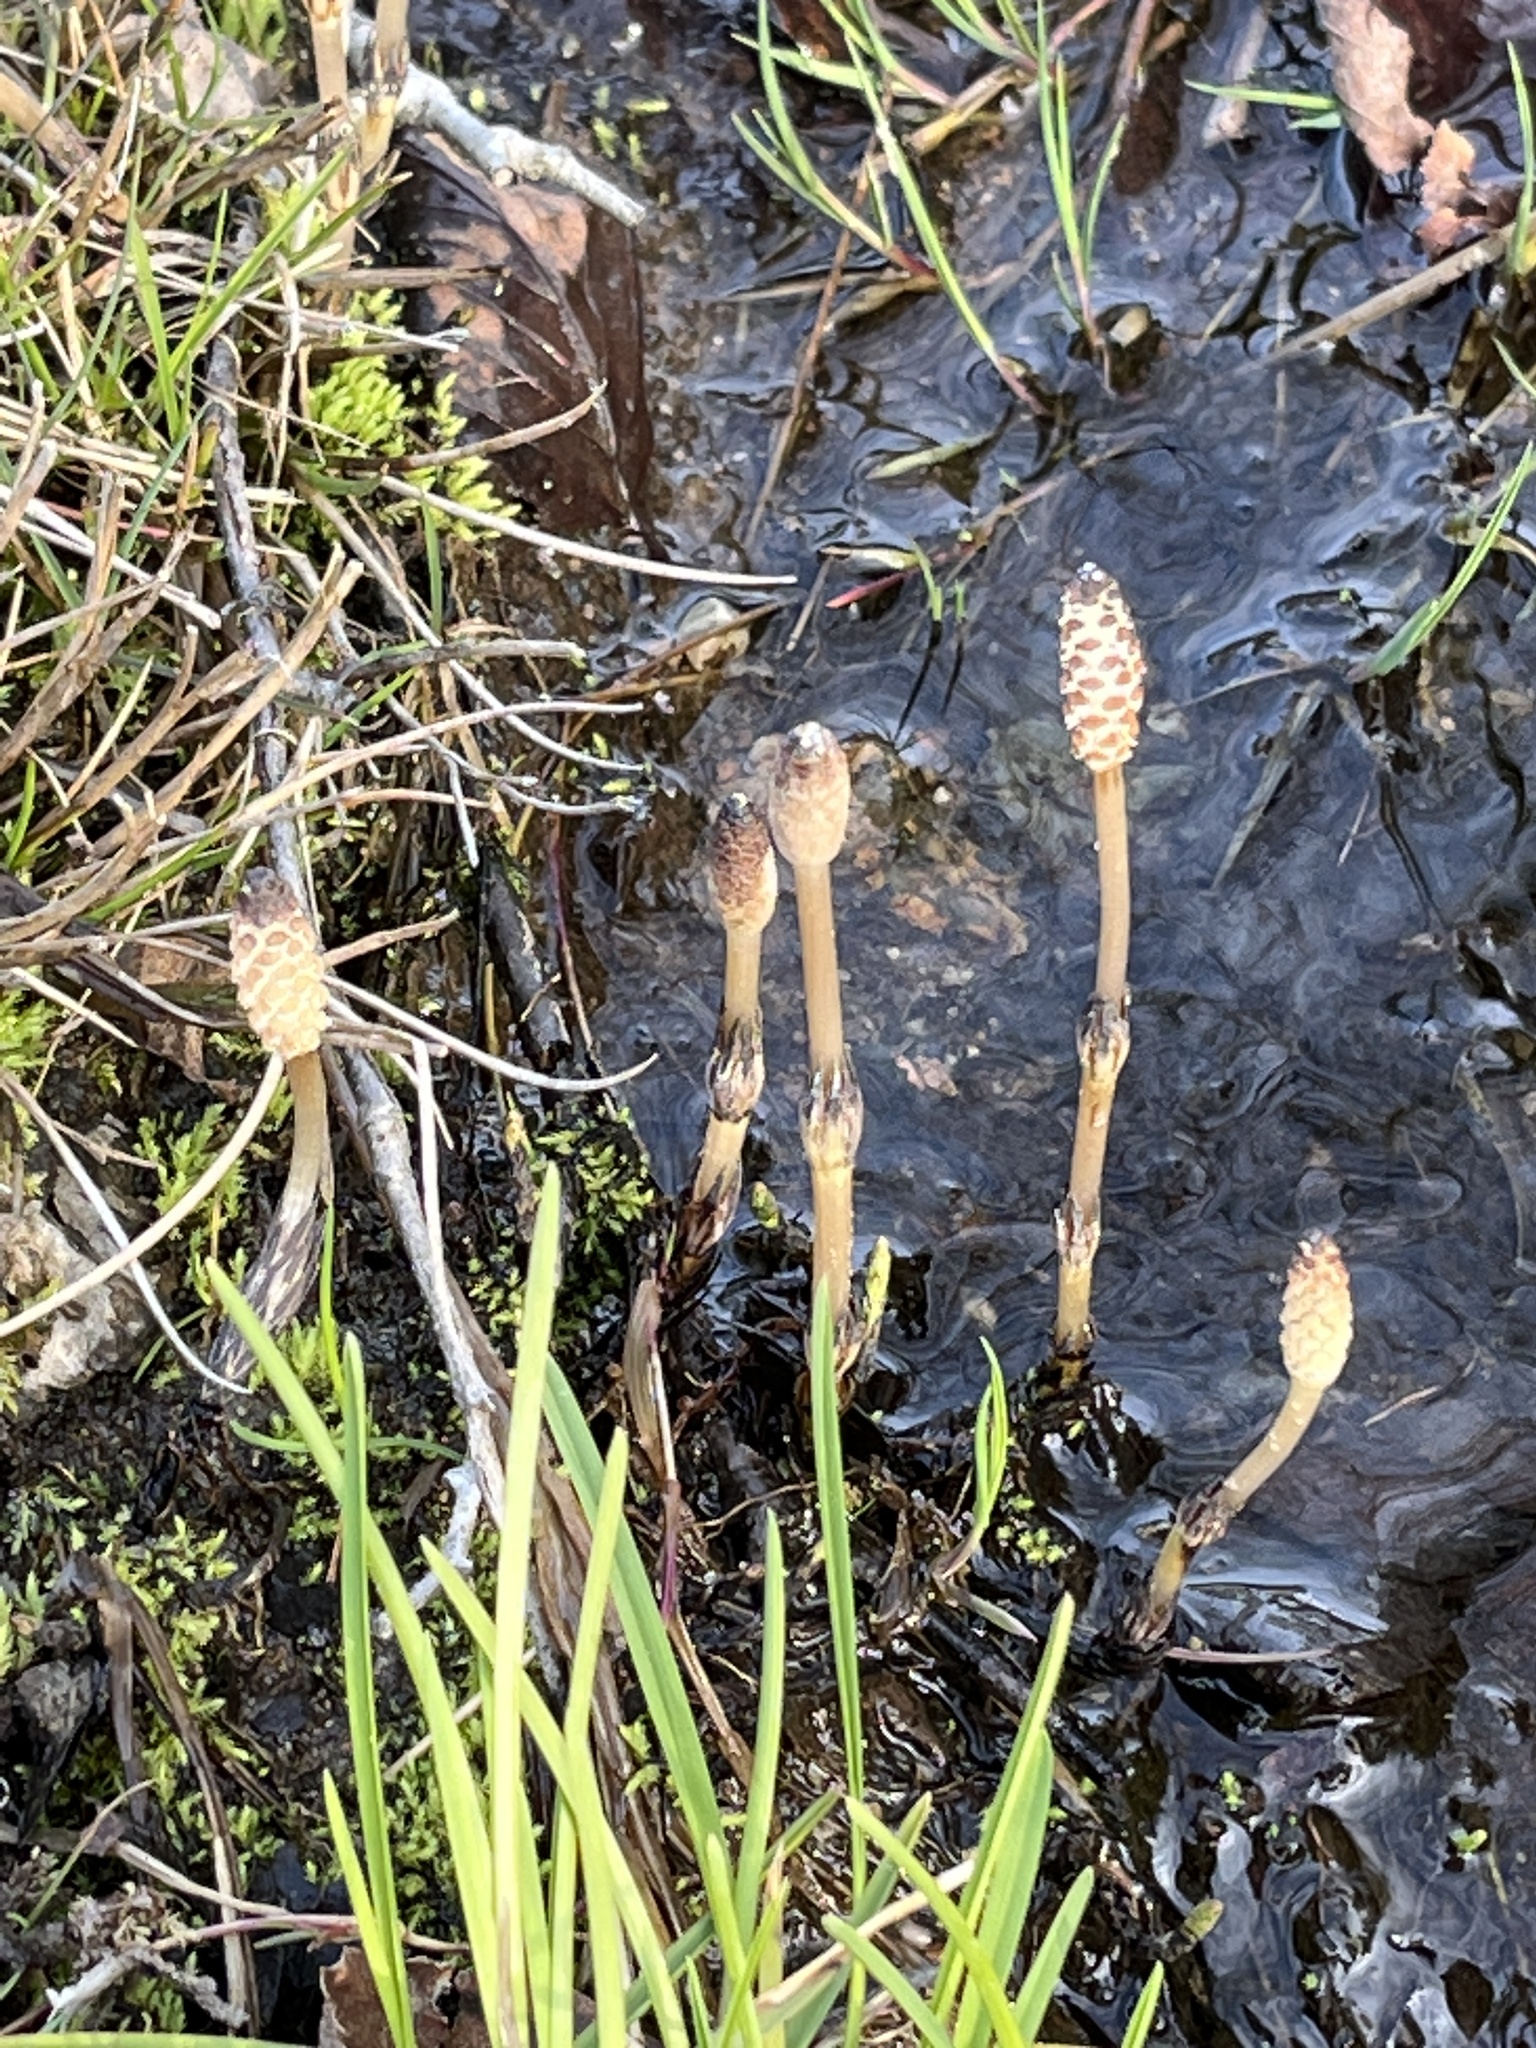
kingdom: Plantae
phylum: Tracheophyta
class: Polypodiopsida
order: Equisetales
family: Equisetaceae
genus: Equisetum
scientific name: Equisetum arvense
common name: Field horsetail
